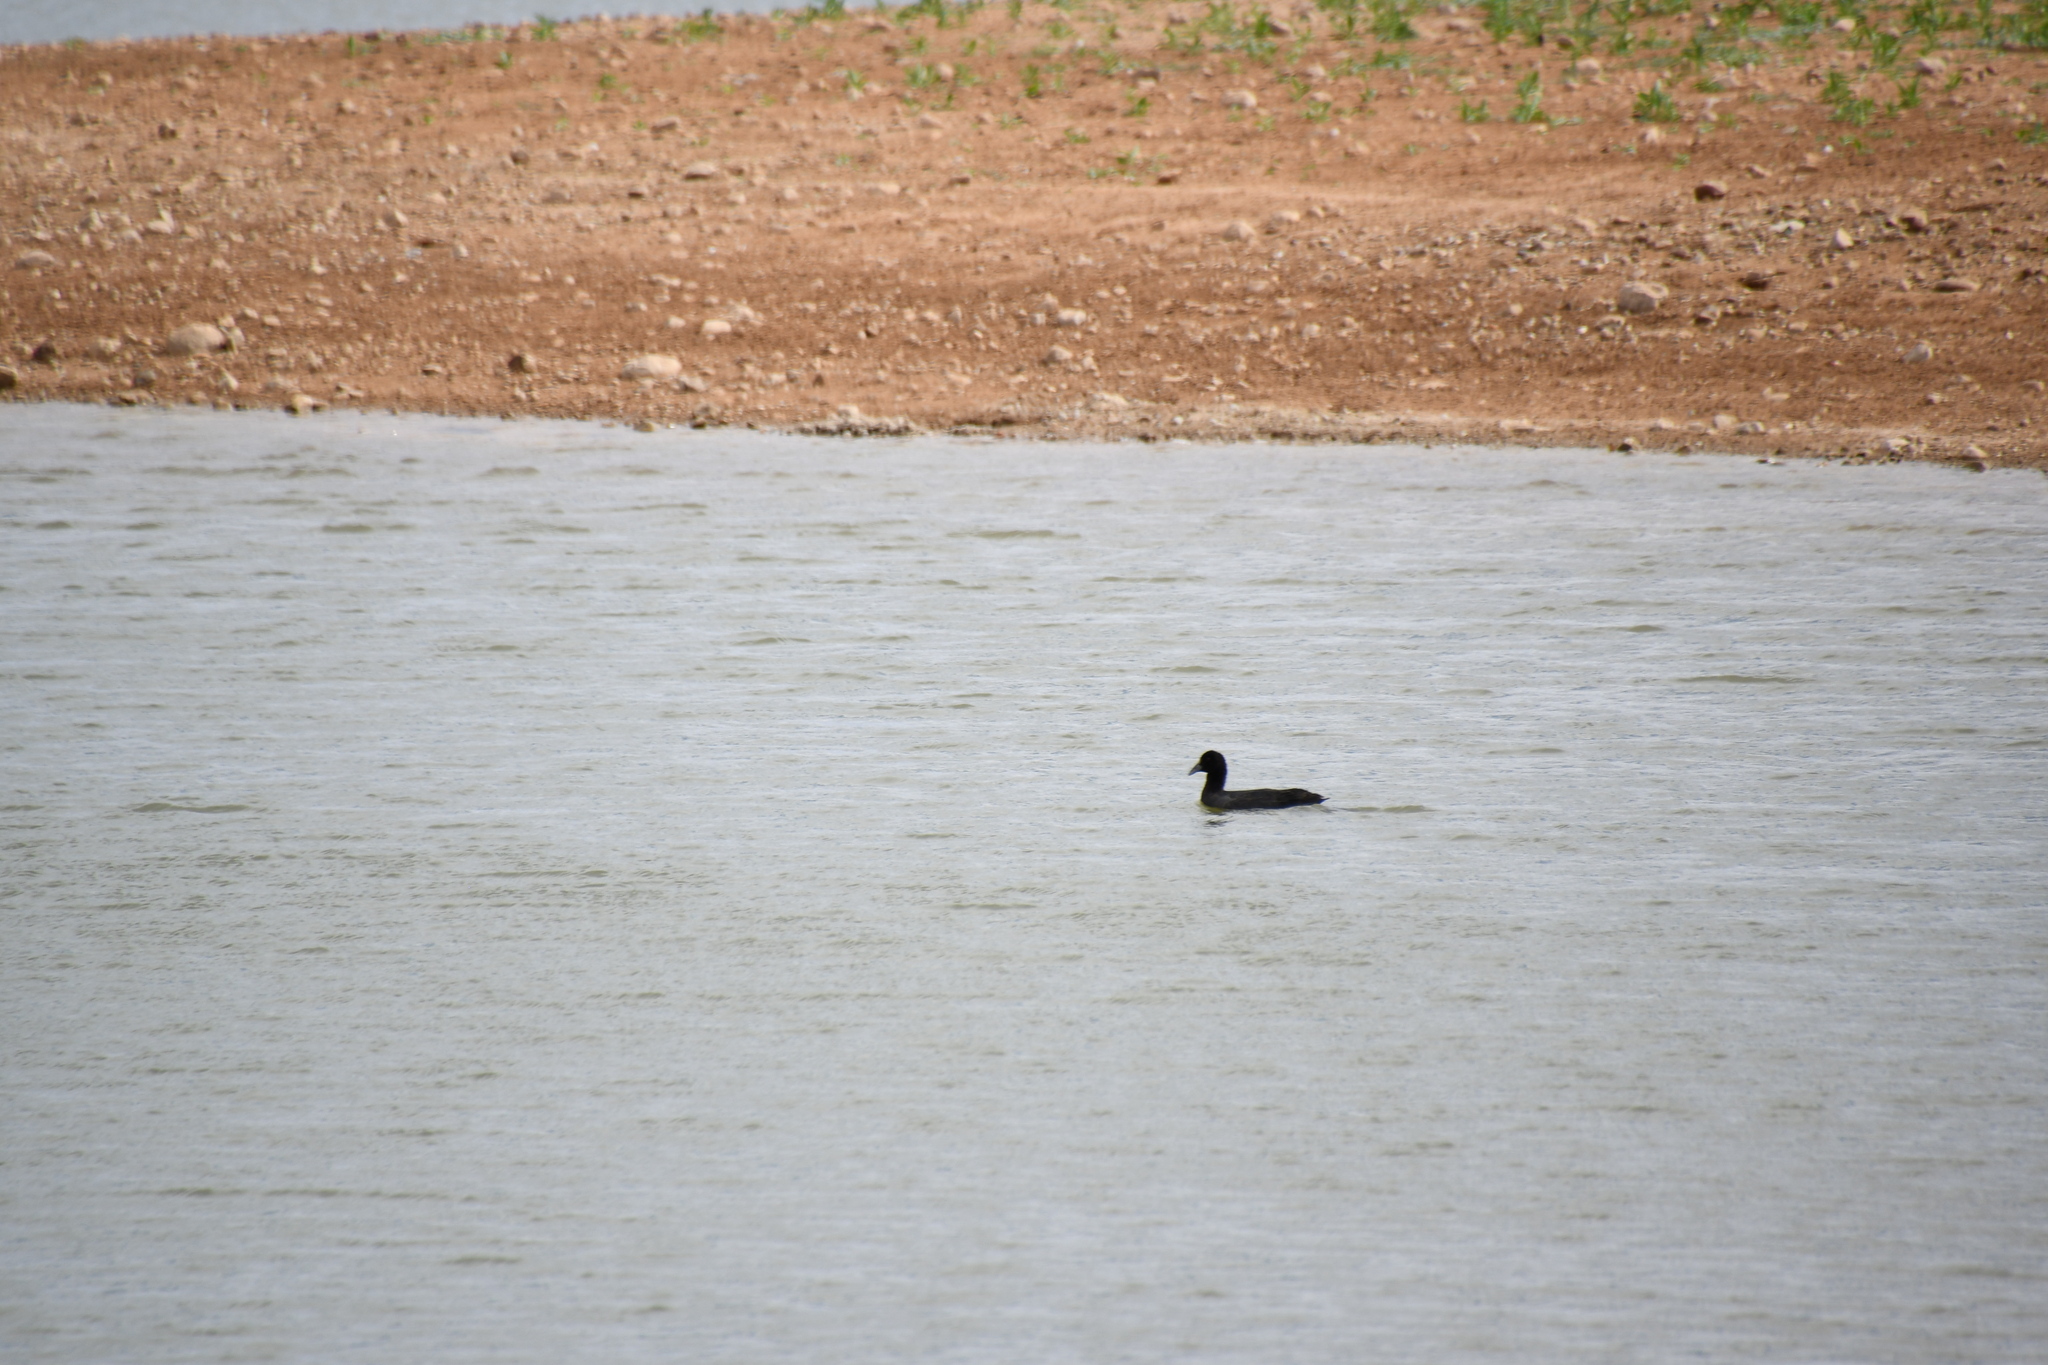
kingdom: Animalia
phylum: Chordata
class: Aves
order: Gruiformes
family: Rallidae
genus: Fulica
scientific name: Fulica atra
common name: Eurasian coot
